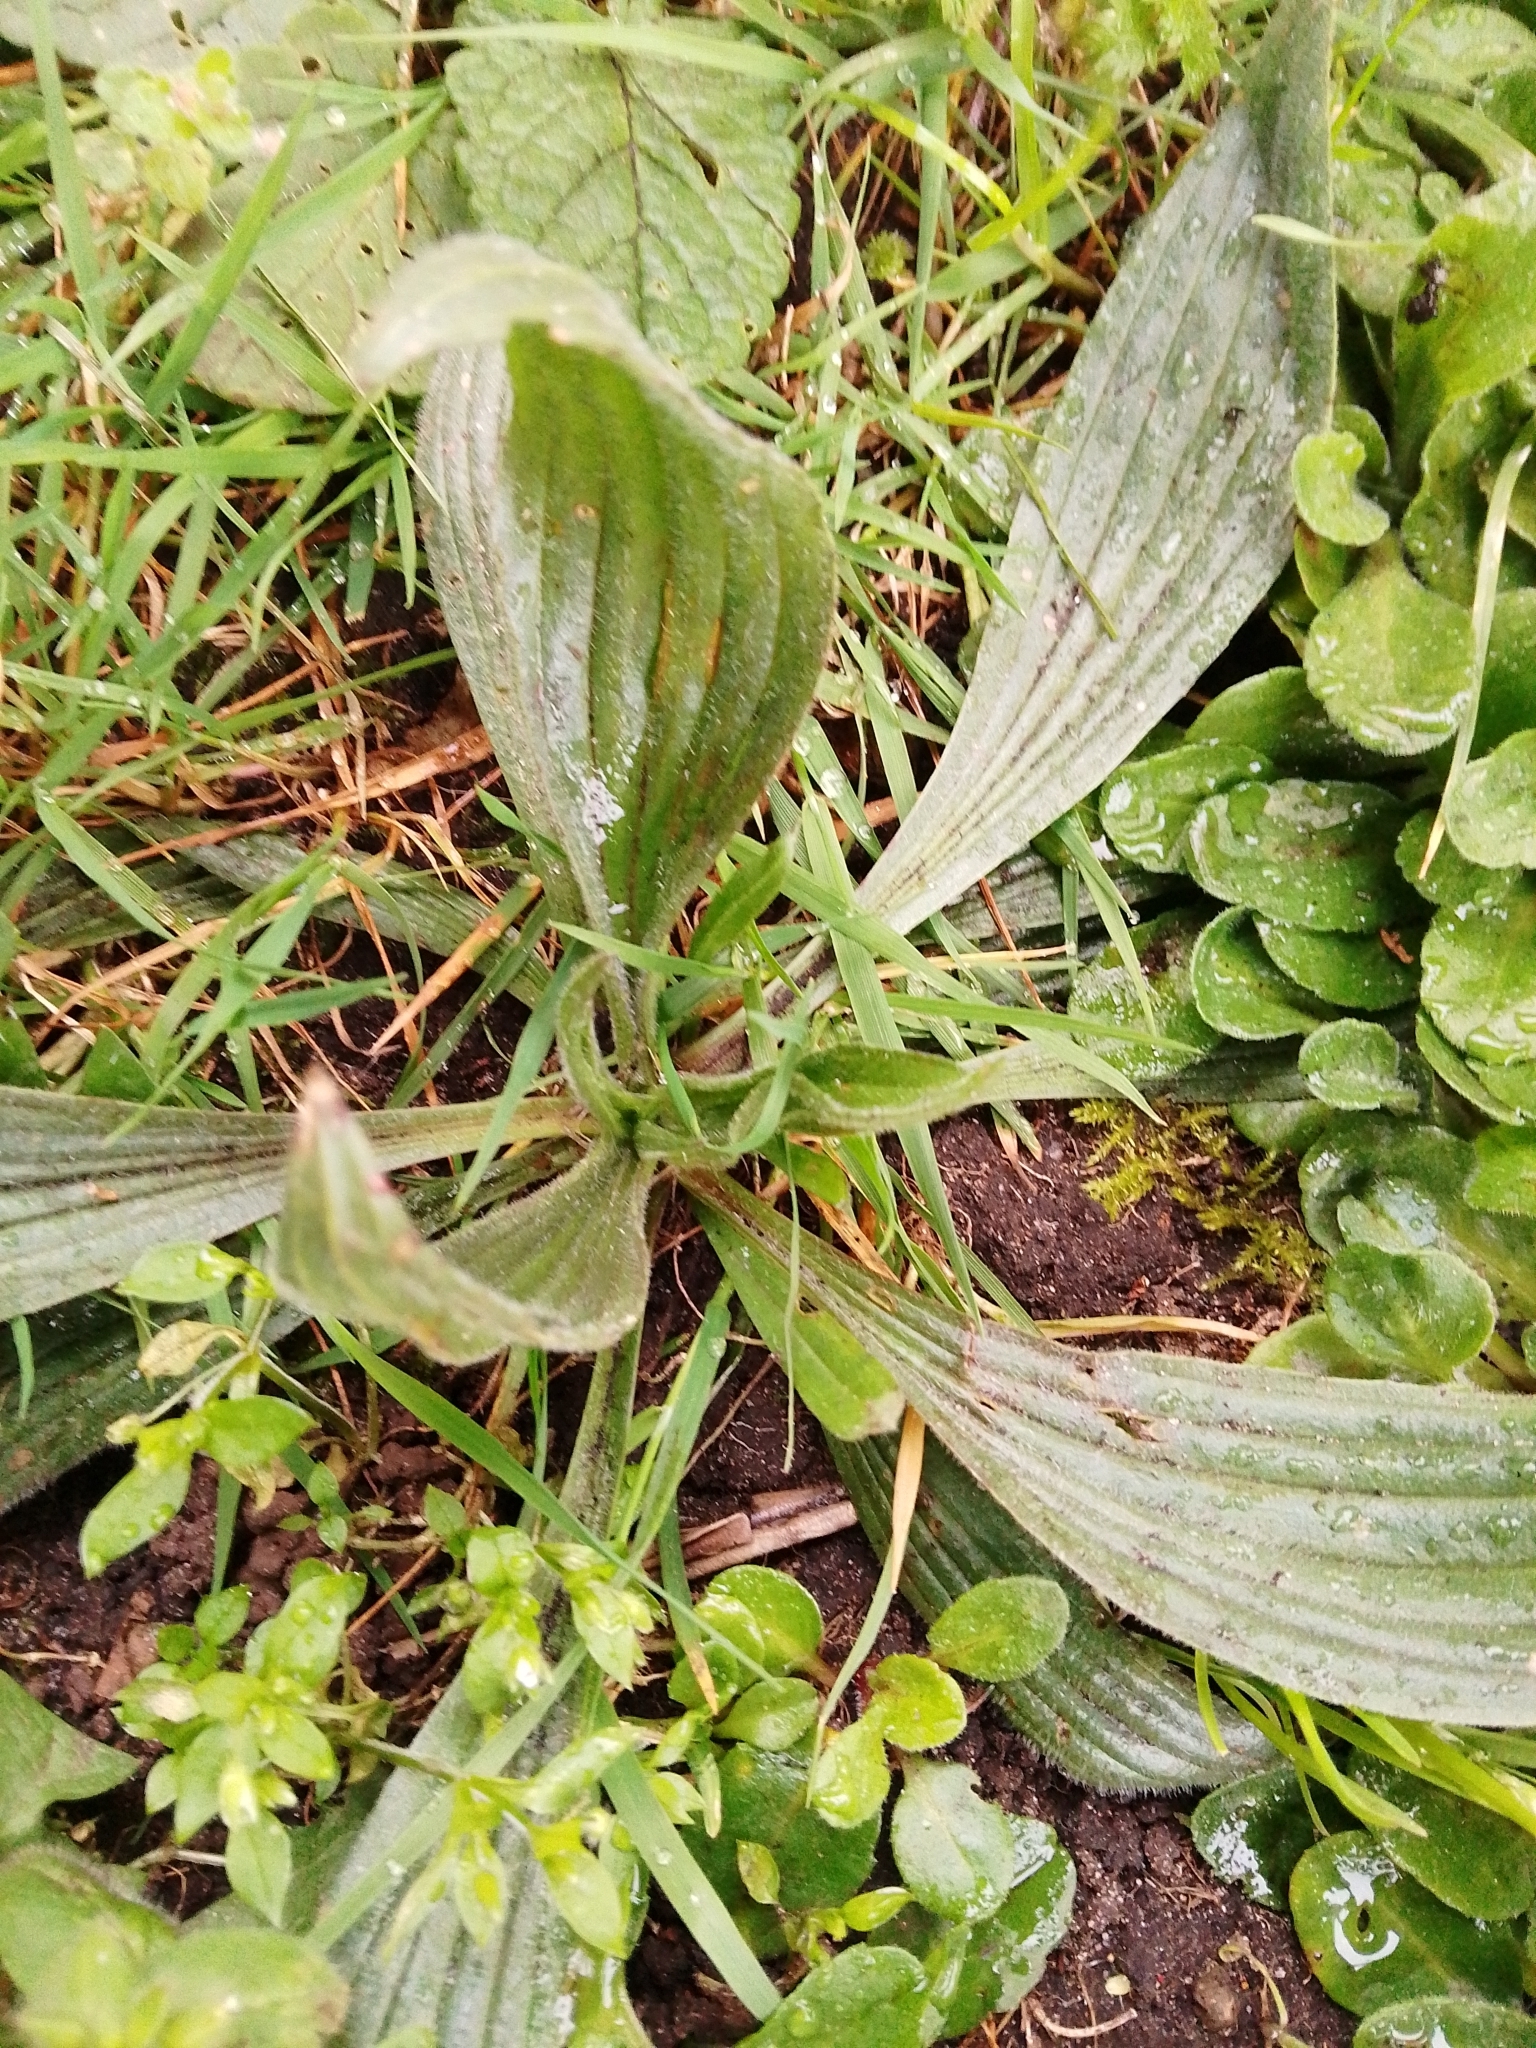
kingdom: Plantae
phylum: Tracheophyta
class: Magnoliopsida
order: Lamiales
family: Plantaginaceae
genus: Plantago
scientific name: Plantago lanceolata
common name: Ribwort plantain
